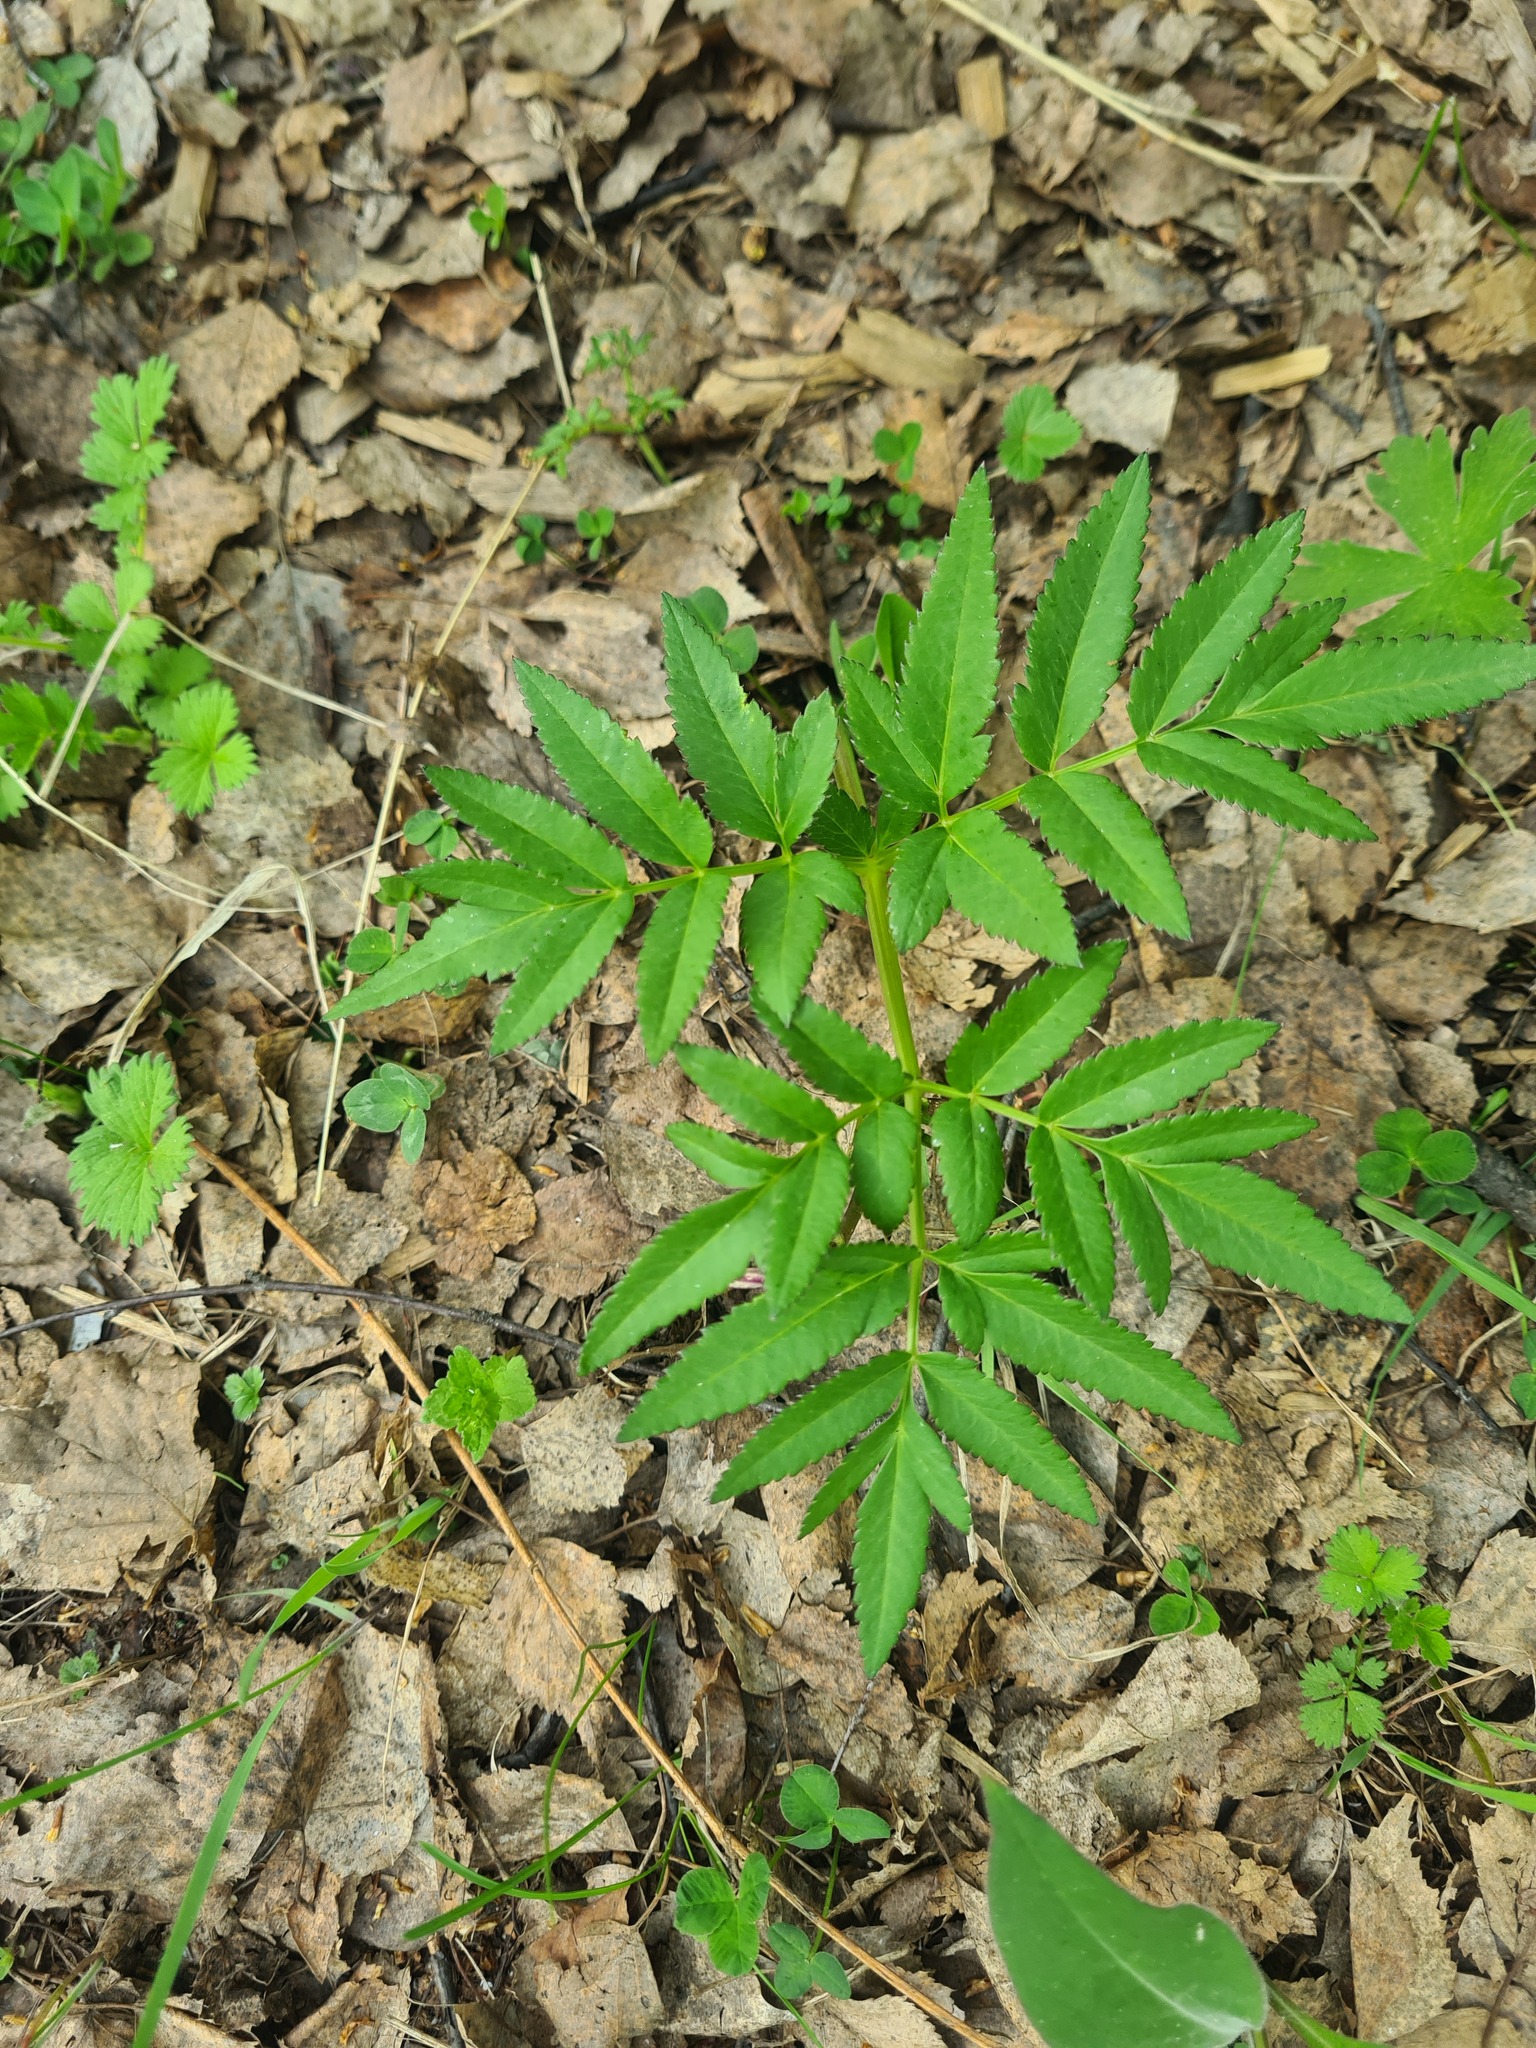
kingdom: Plantae
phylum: Tracheophyta
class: Magnoliopsida
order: Apiales
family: Apiaceae
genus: Angelica
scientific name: Angelica sylvestris
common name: Wild angelica
